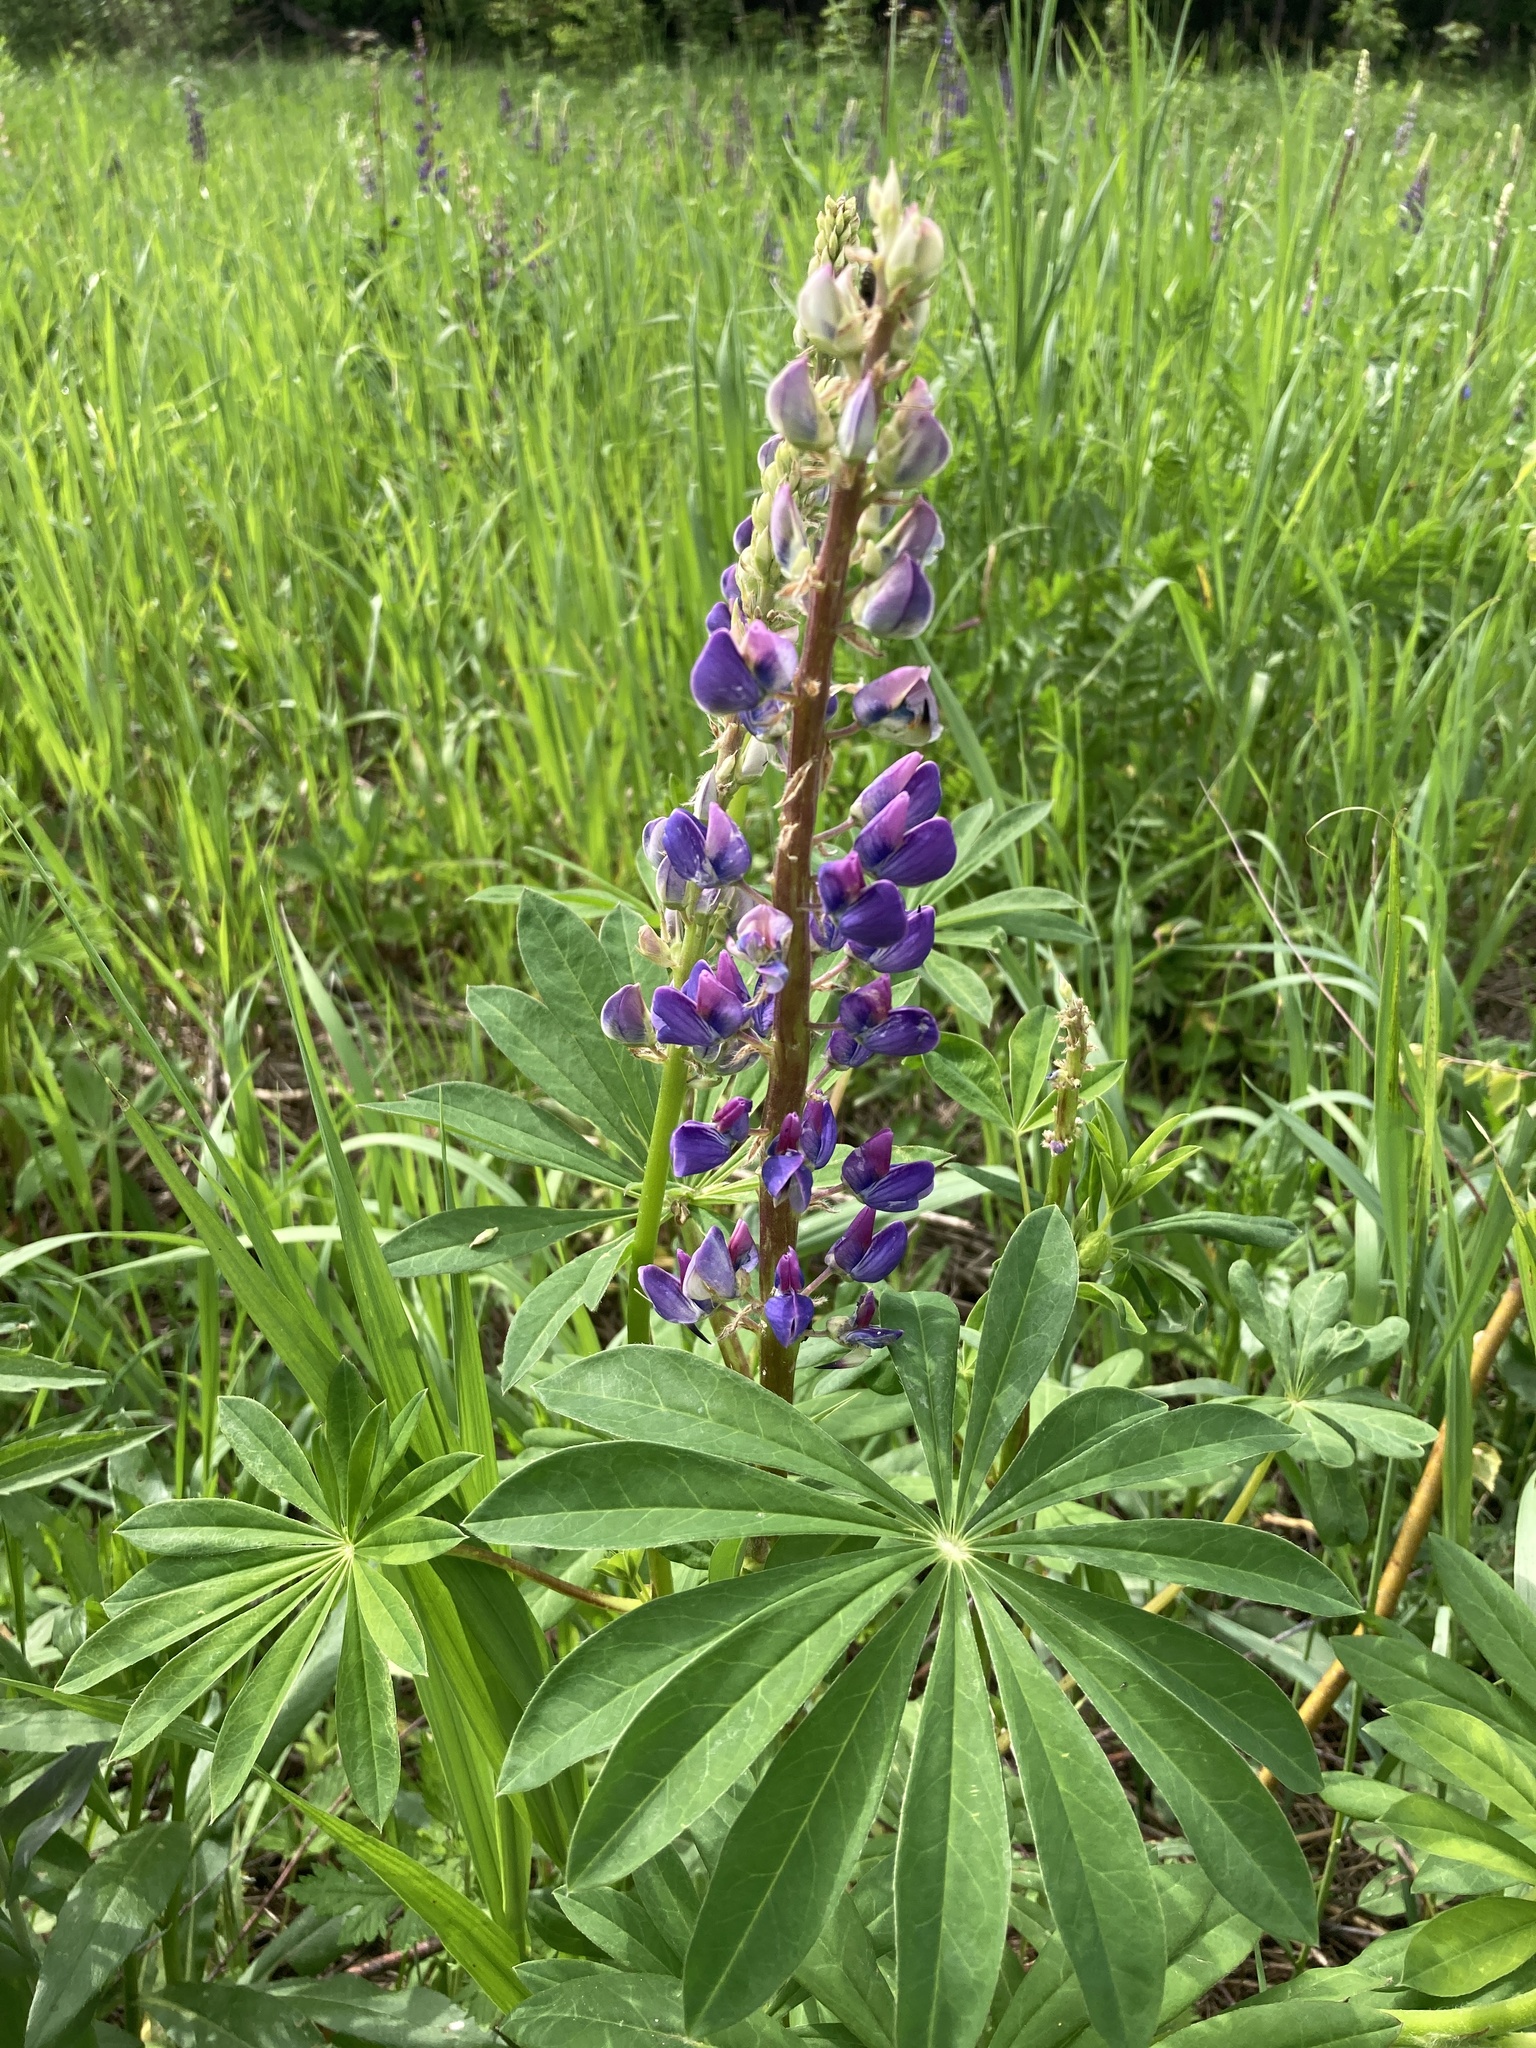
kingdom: Plantae
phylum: Tracheophyta
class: Magnoliopsida
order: Fabales
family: Fabaceae
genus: Lupinus
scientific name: Lupinus polyphyllus
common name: Garden lupin
